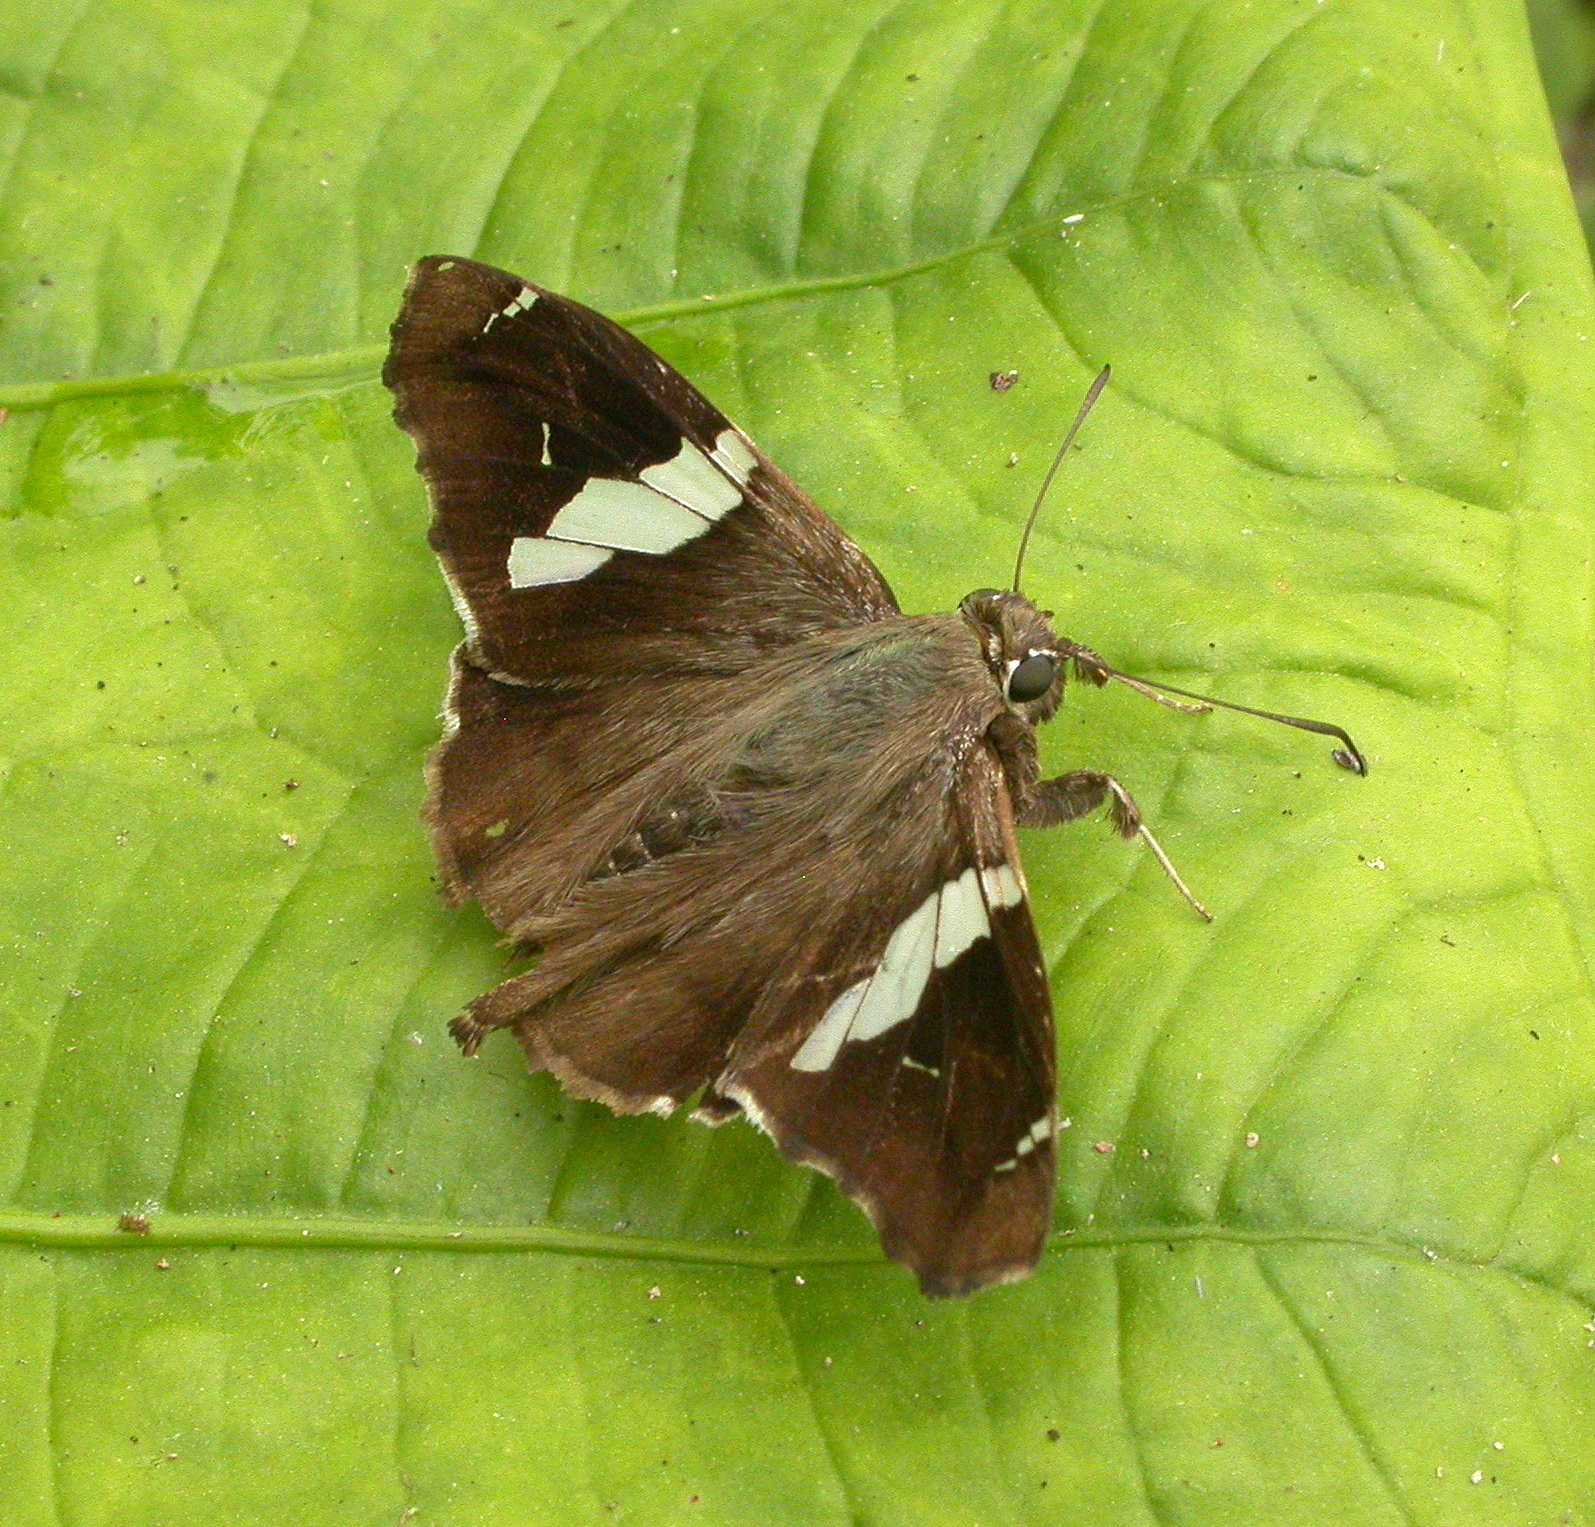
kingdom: Animalia
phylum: Arthropoda
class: Insecta
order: Lepidoptera
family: Hesperiidae
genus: Spathilepia
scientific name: Spathilepia clonius
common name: Falcate skipper
